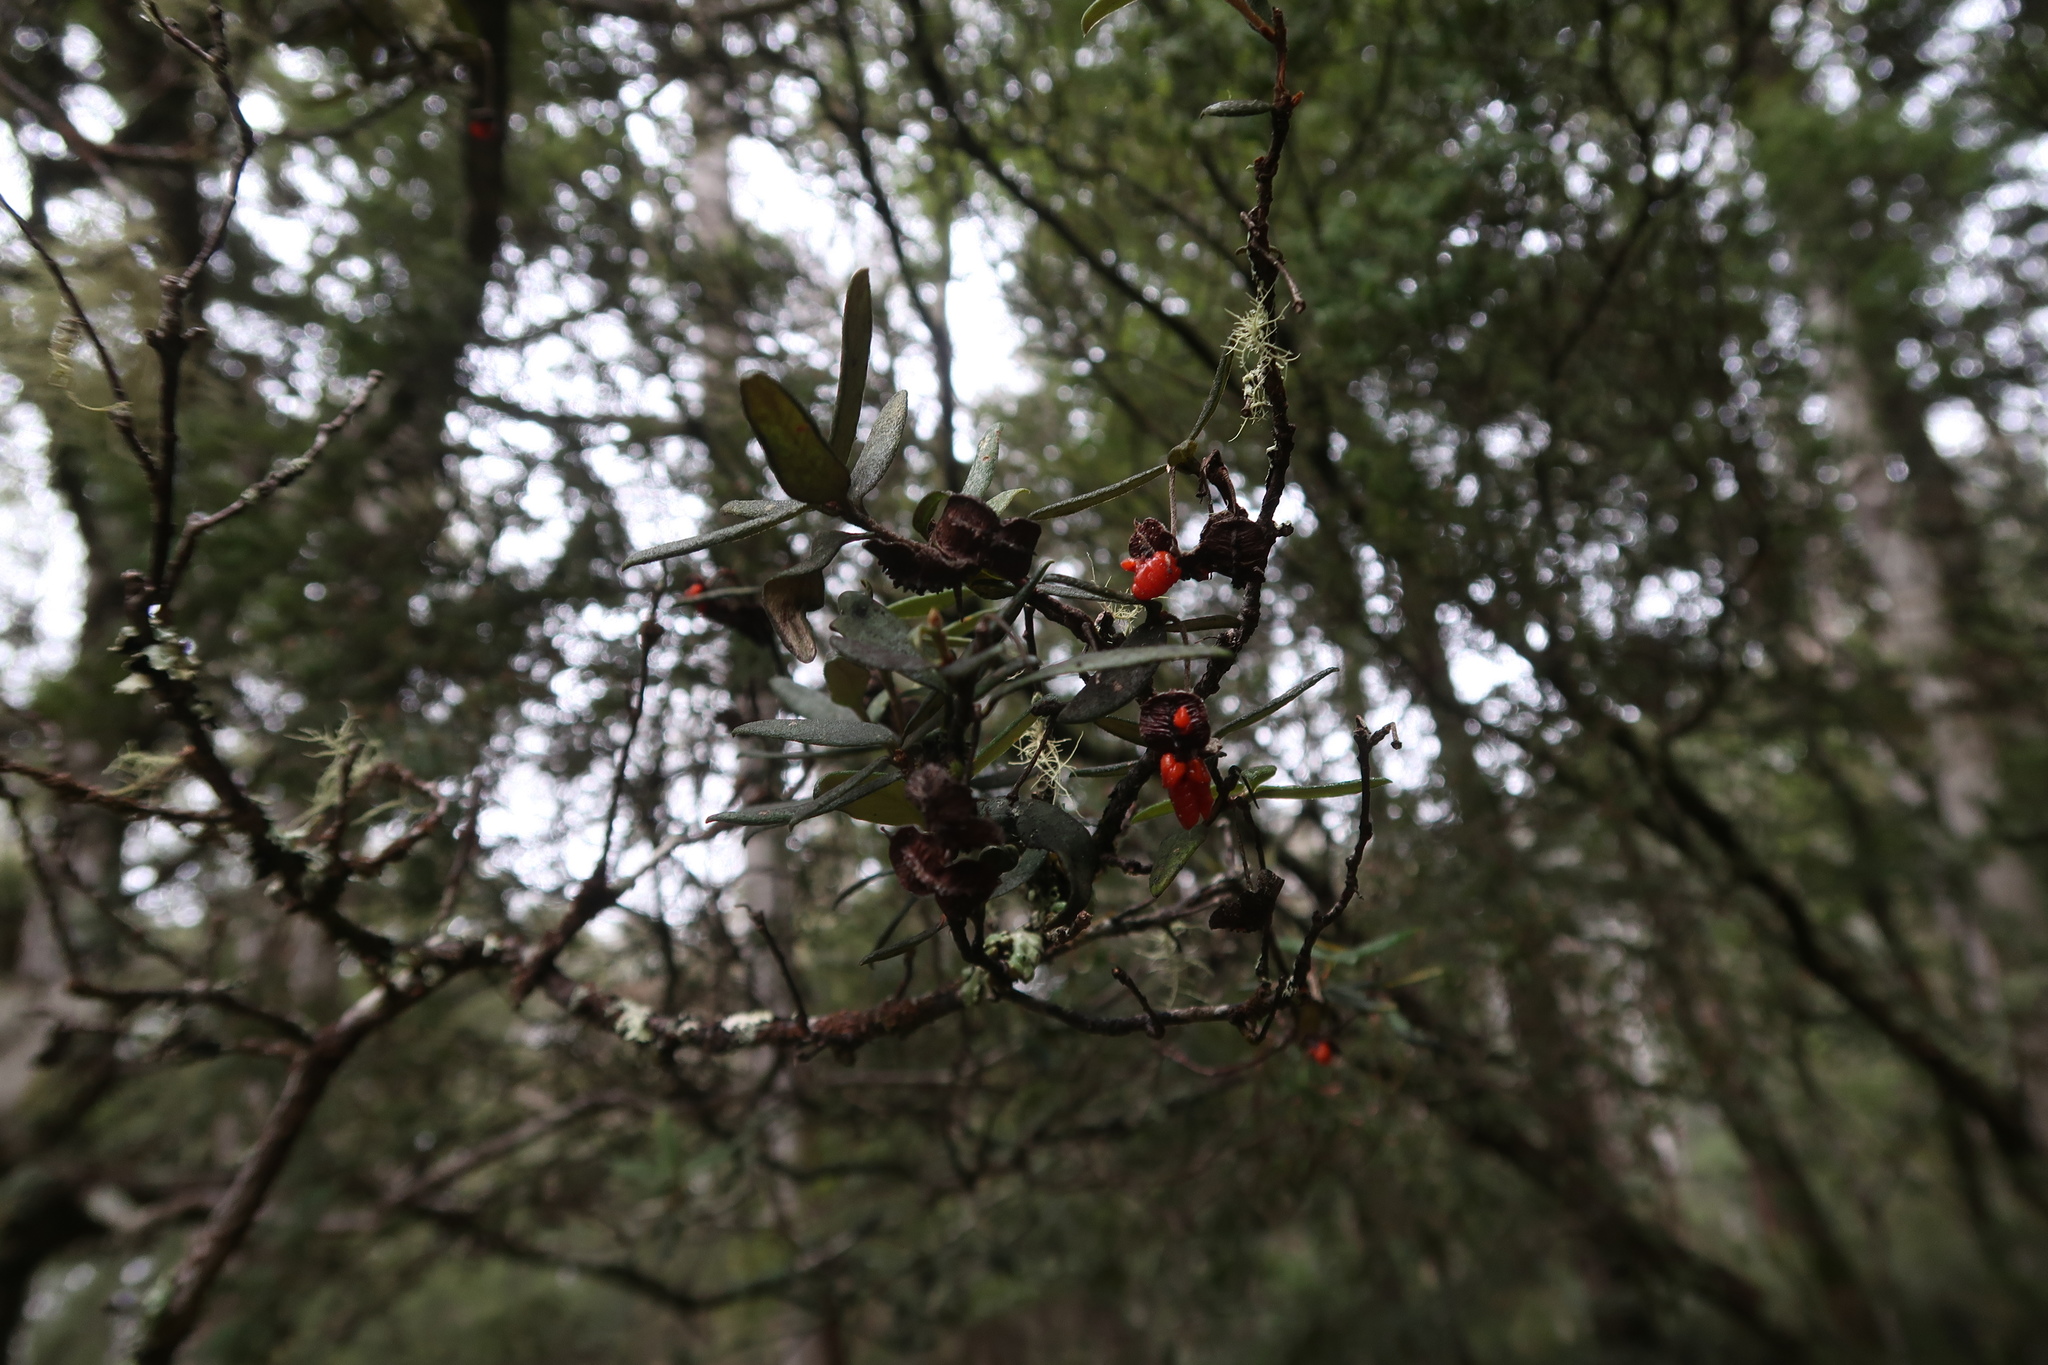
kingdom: Plantae
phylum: Tracheophyta
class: Magnoliopsida
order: Apiales
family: Pittosporaceae
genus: Pittosporum
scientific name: Pittosporum bicolor
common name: Tallowwood
